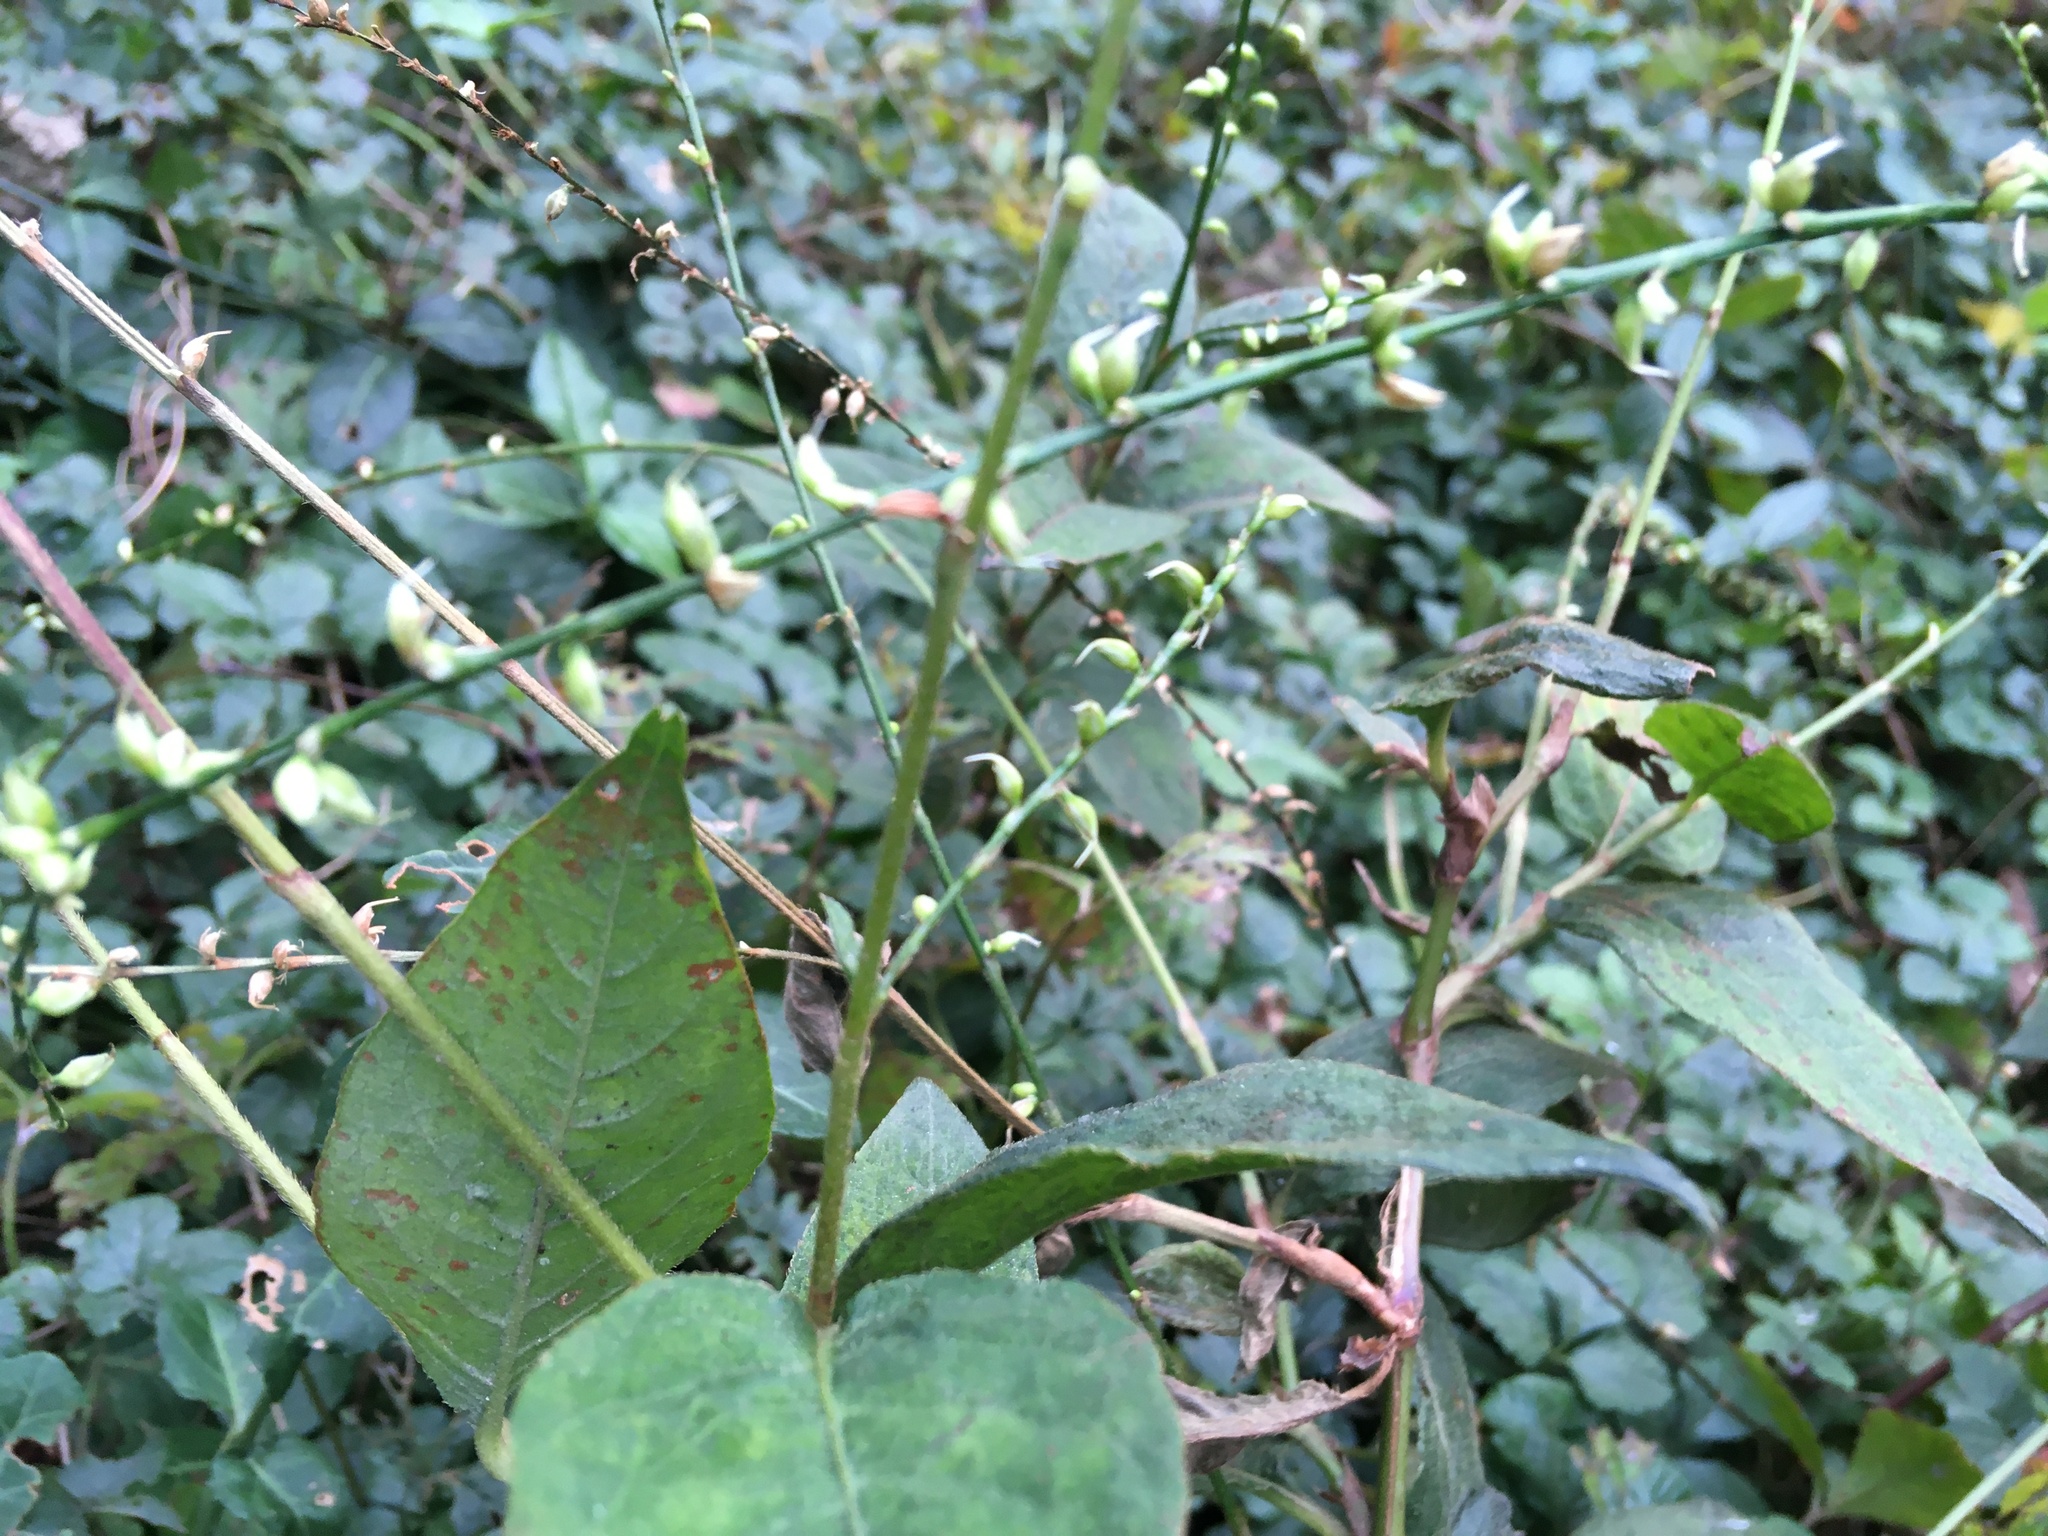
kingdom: Plantae
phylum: Tracheophyta
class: Magnoliopsida
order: Caryophyllales
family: Polygonaceae
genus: Persicaria
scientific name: Persicaria virginiana
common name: Jumpseed
